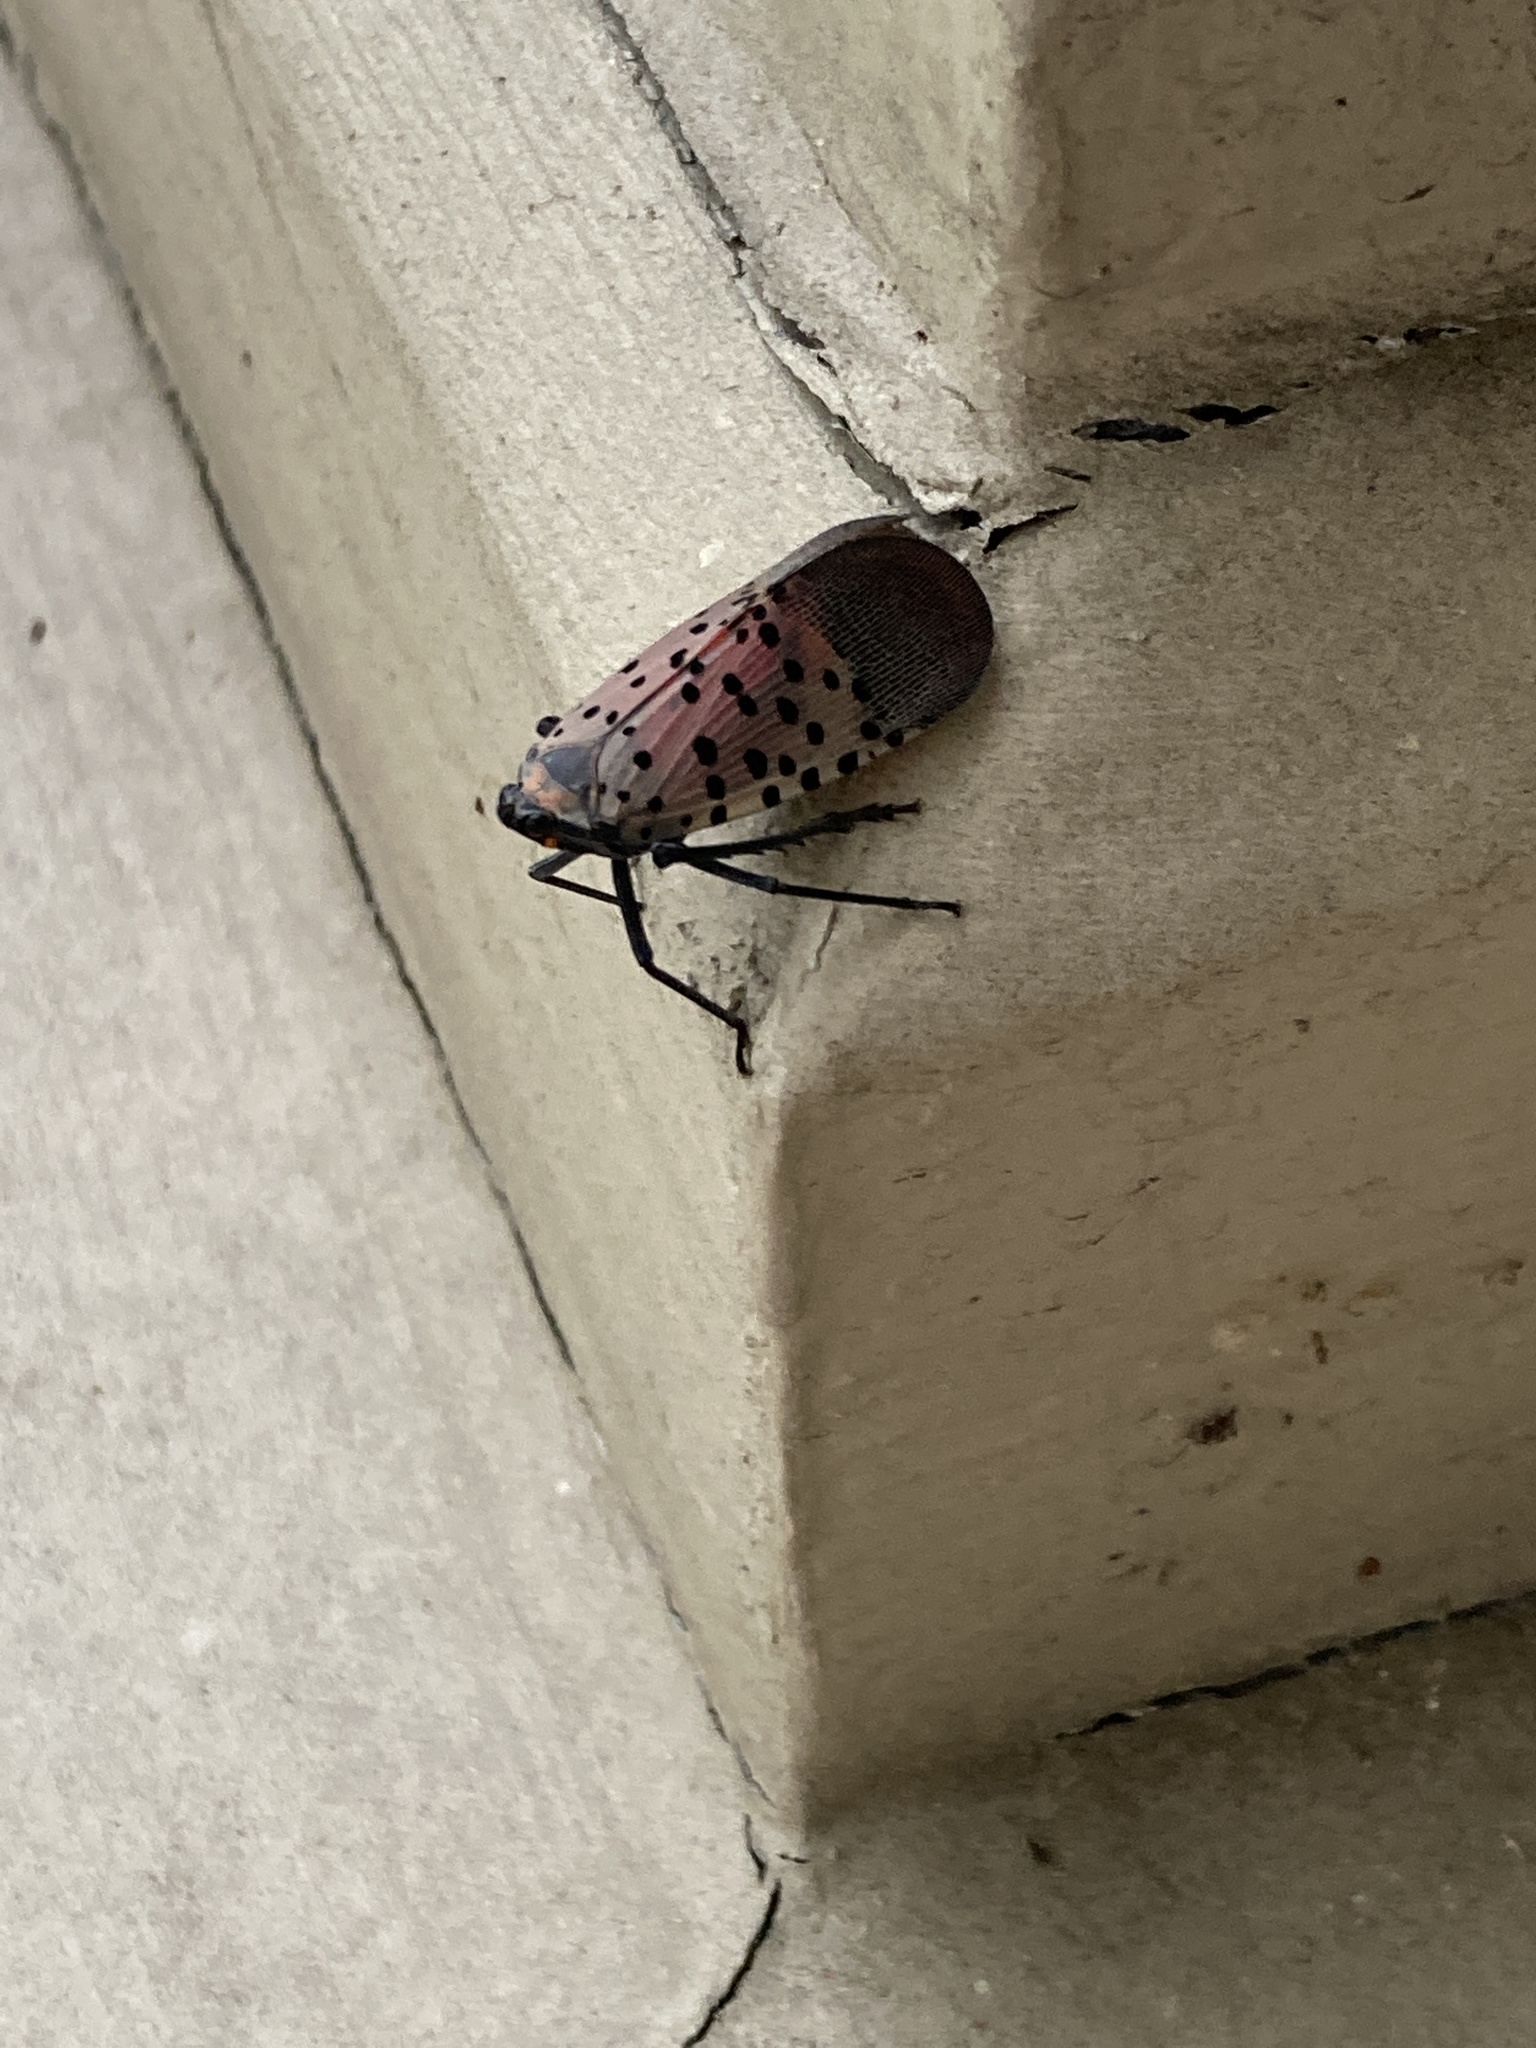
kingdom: Animalia
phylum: Arthropoda
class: Insecta
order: Hemiptera
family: Fulgoridae
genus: Lycorma
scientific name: Lycorma delicatula
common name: Spotted lanternfly
